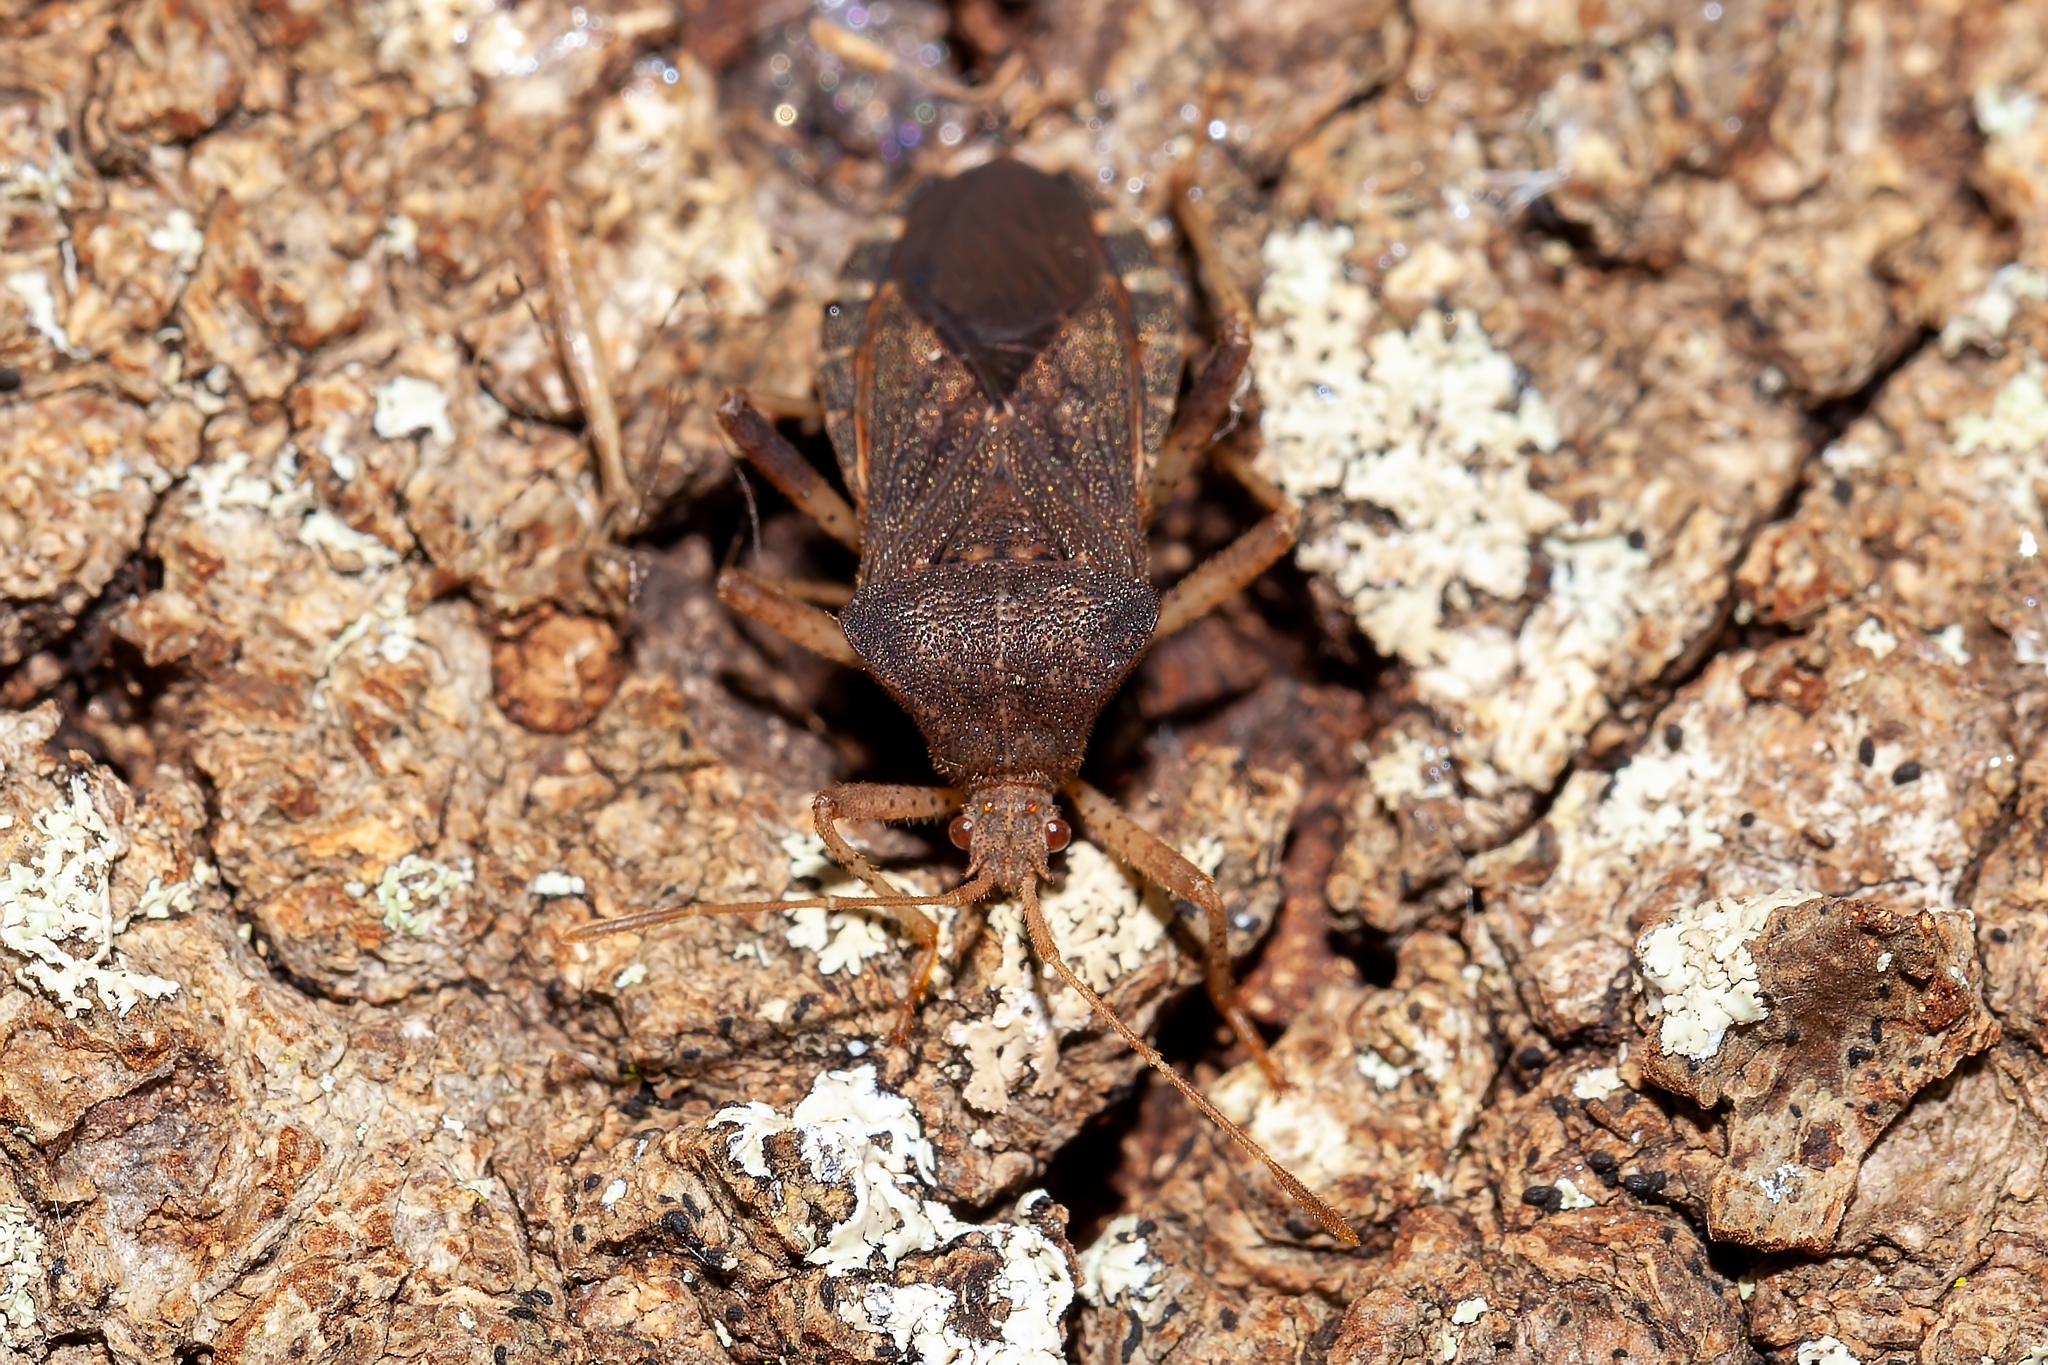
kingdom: Animalia
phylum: Arthropoda
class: Insecta
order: Hemiptera
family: Coreidae
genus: Anasa
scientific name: Anasa scorbutica
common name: Squash bug
